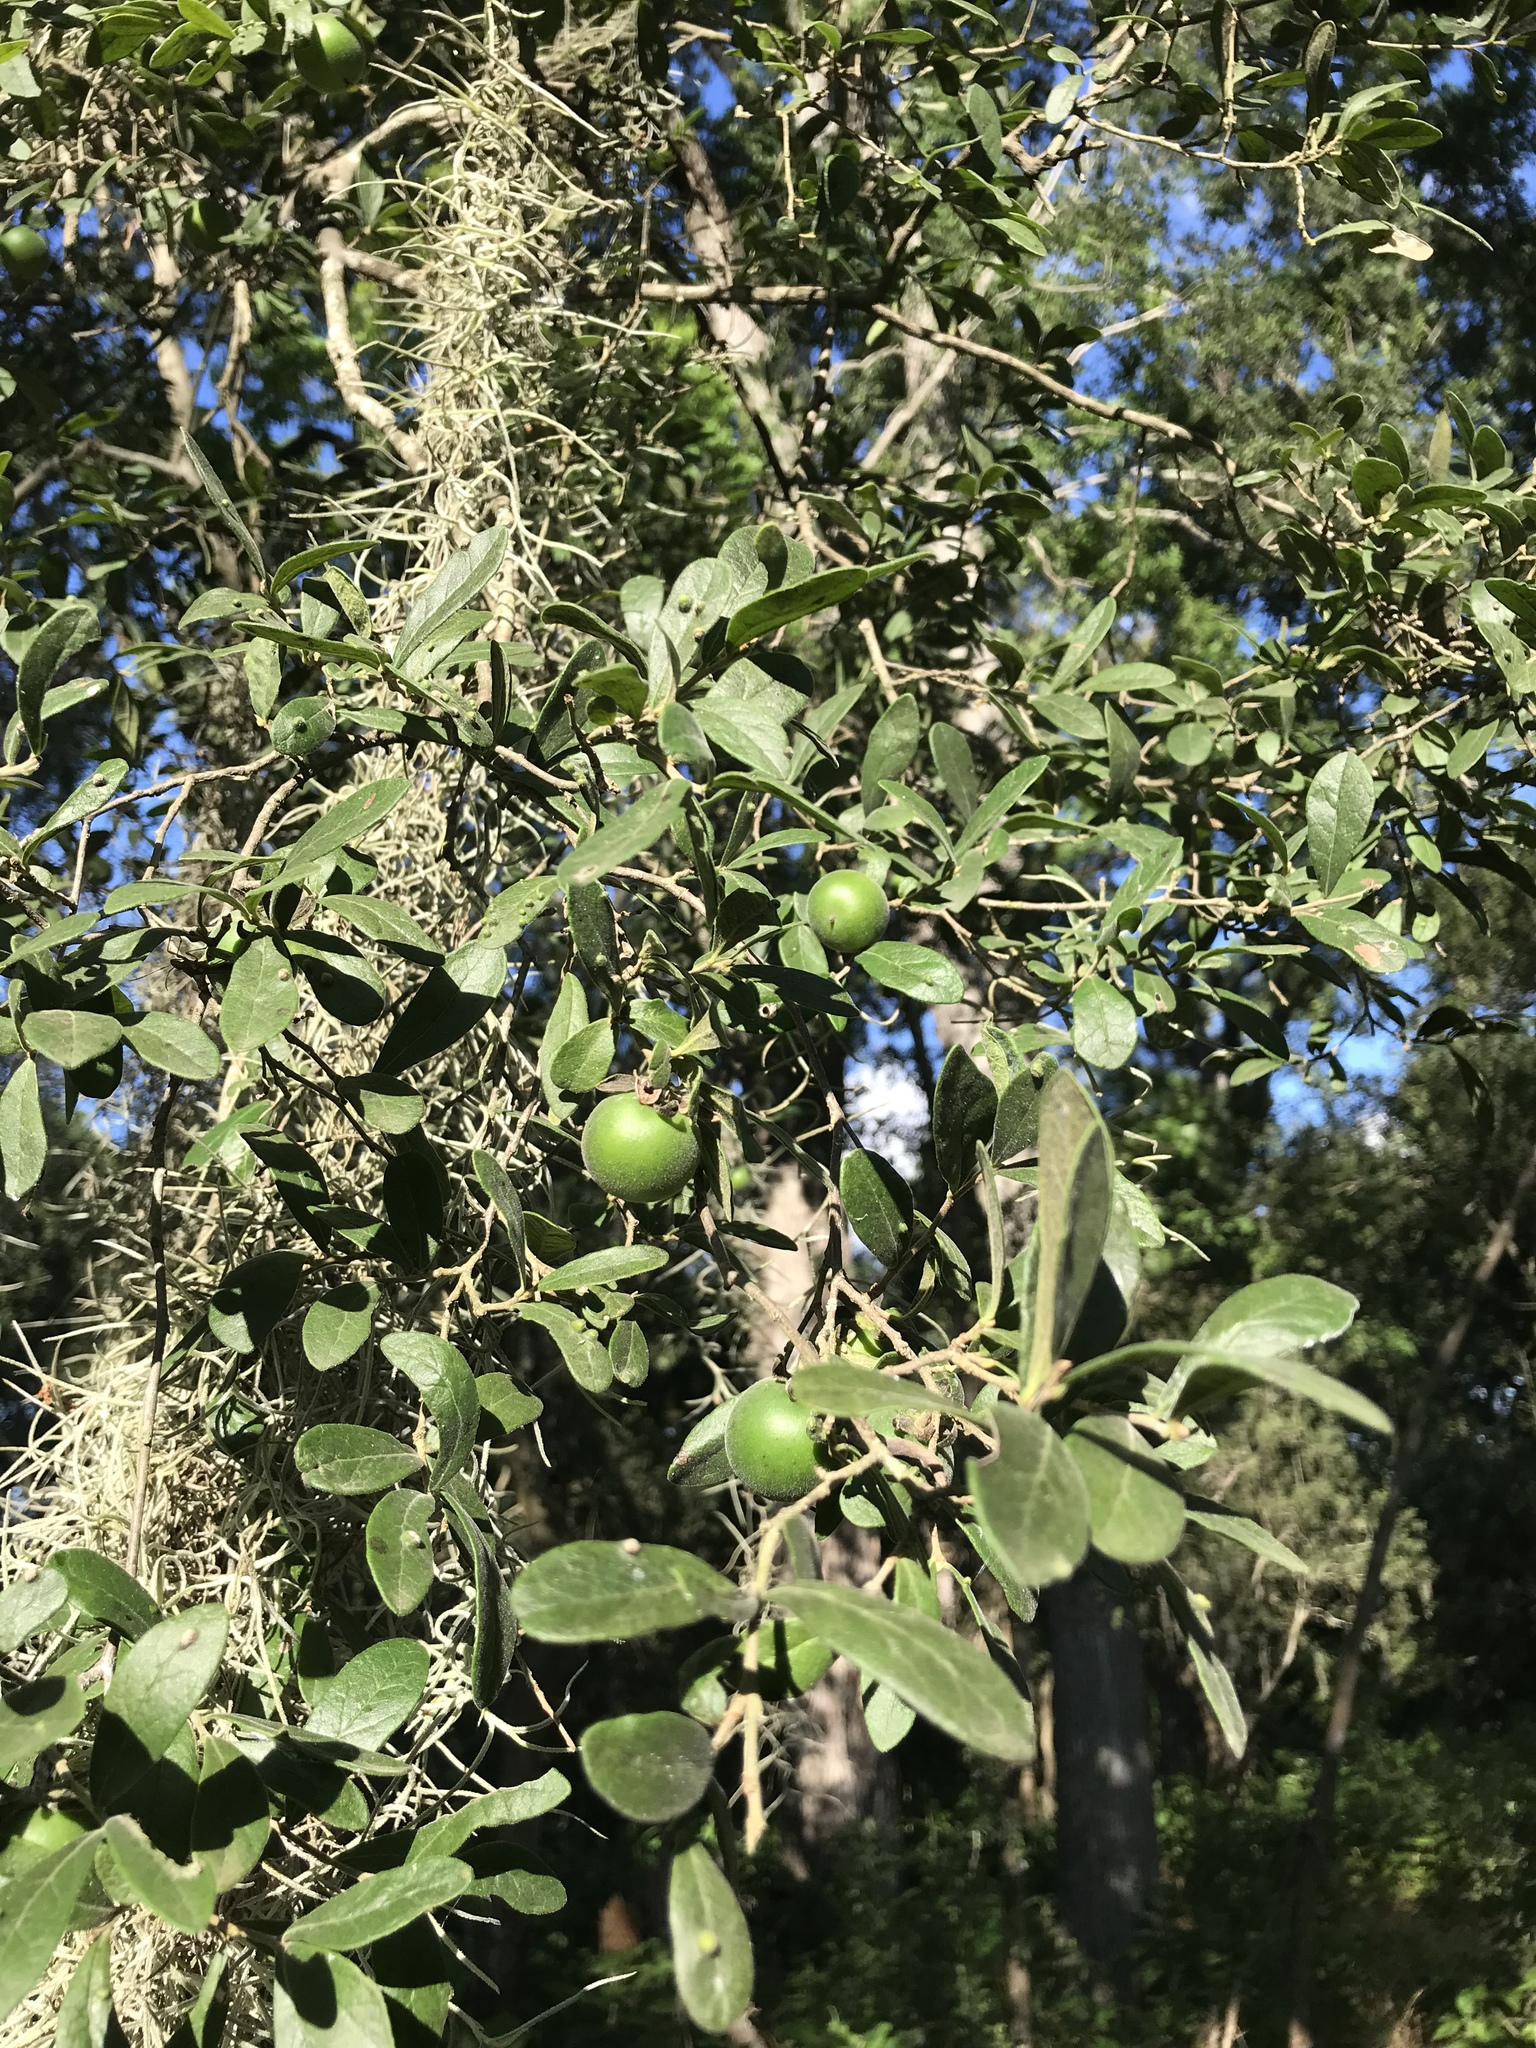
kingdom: Plantae
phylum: Tracheophyta
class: Magnoliopsida
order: Ericales
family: Ebenaceae
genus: Diospyros
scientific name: Diospyros texana
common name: Texas persimmon
